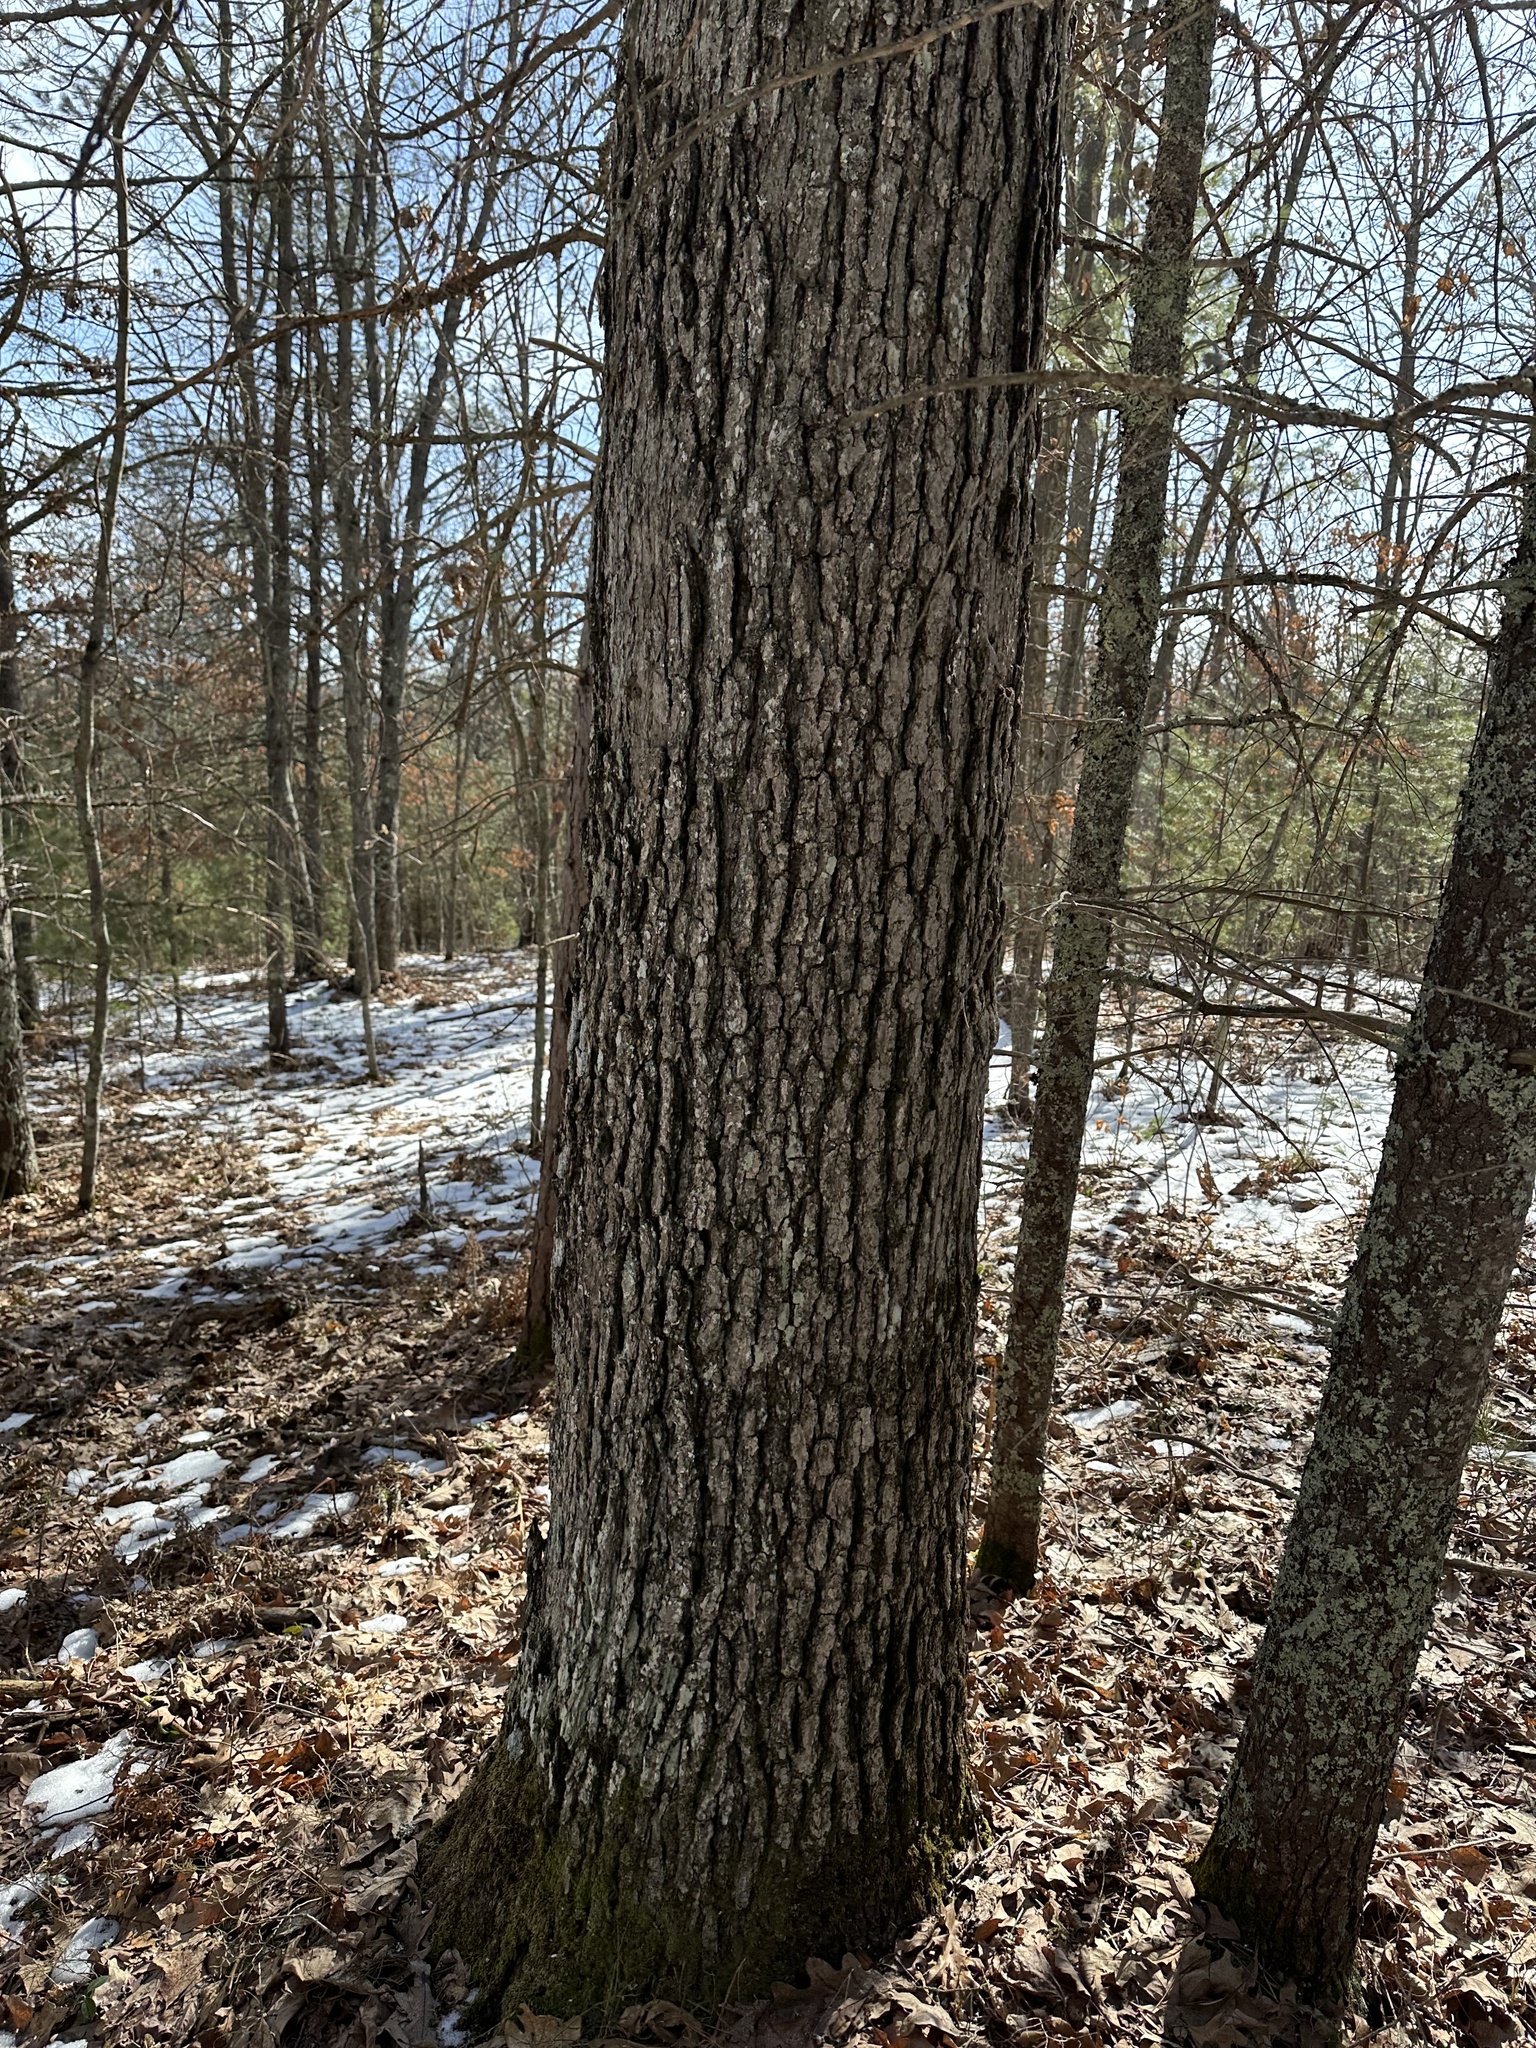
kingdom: Plantae
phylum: Tracheophyta
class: Magnoliopsida
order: Fagales
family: Fagaceae
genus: Quercus
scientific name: Quercus alba
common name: White oak
